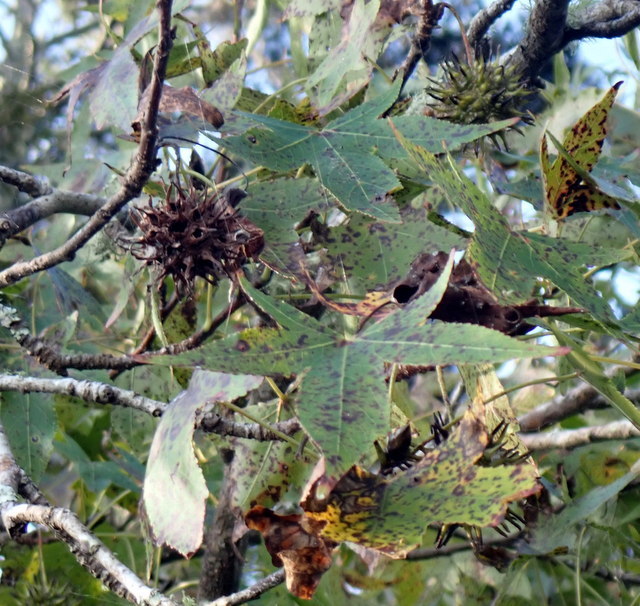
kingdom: Plantae
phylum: Tracheophyta
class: Magnoliopsida
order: Saxifragales
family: Altingiaceae
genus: Liquidambar
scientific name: Liquidambar styraciflua
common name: Sweet gum
